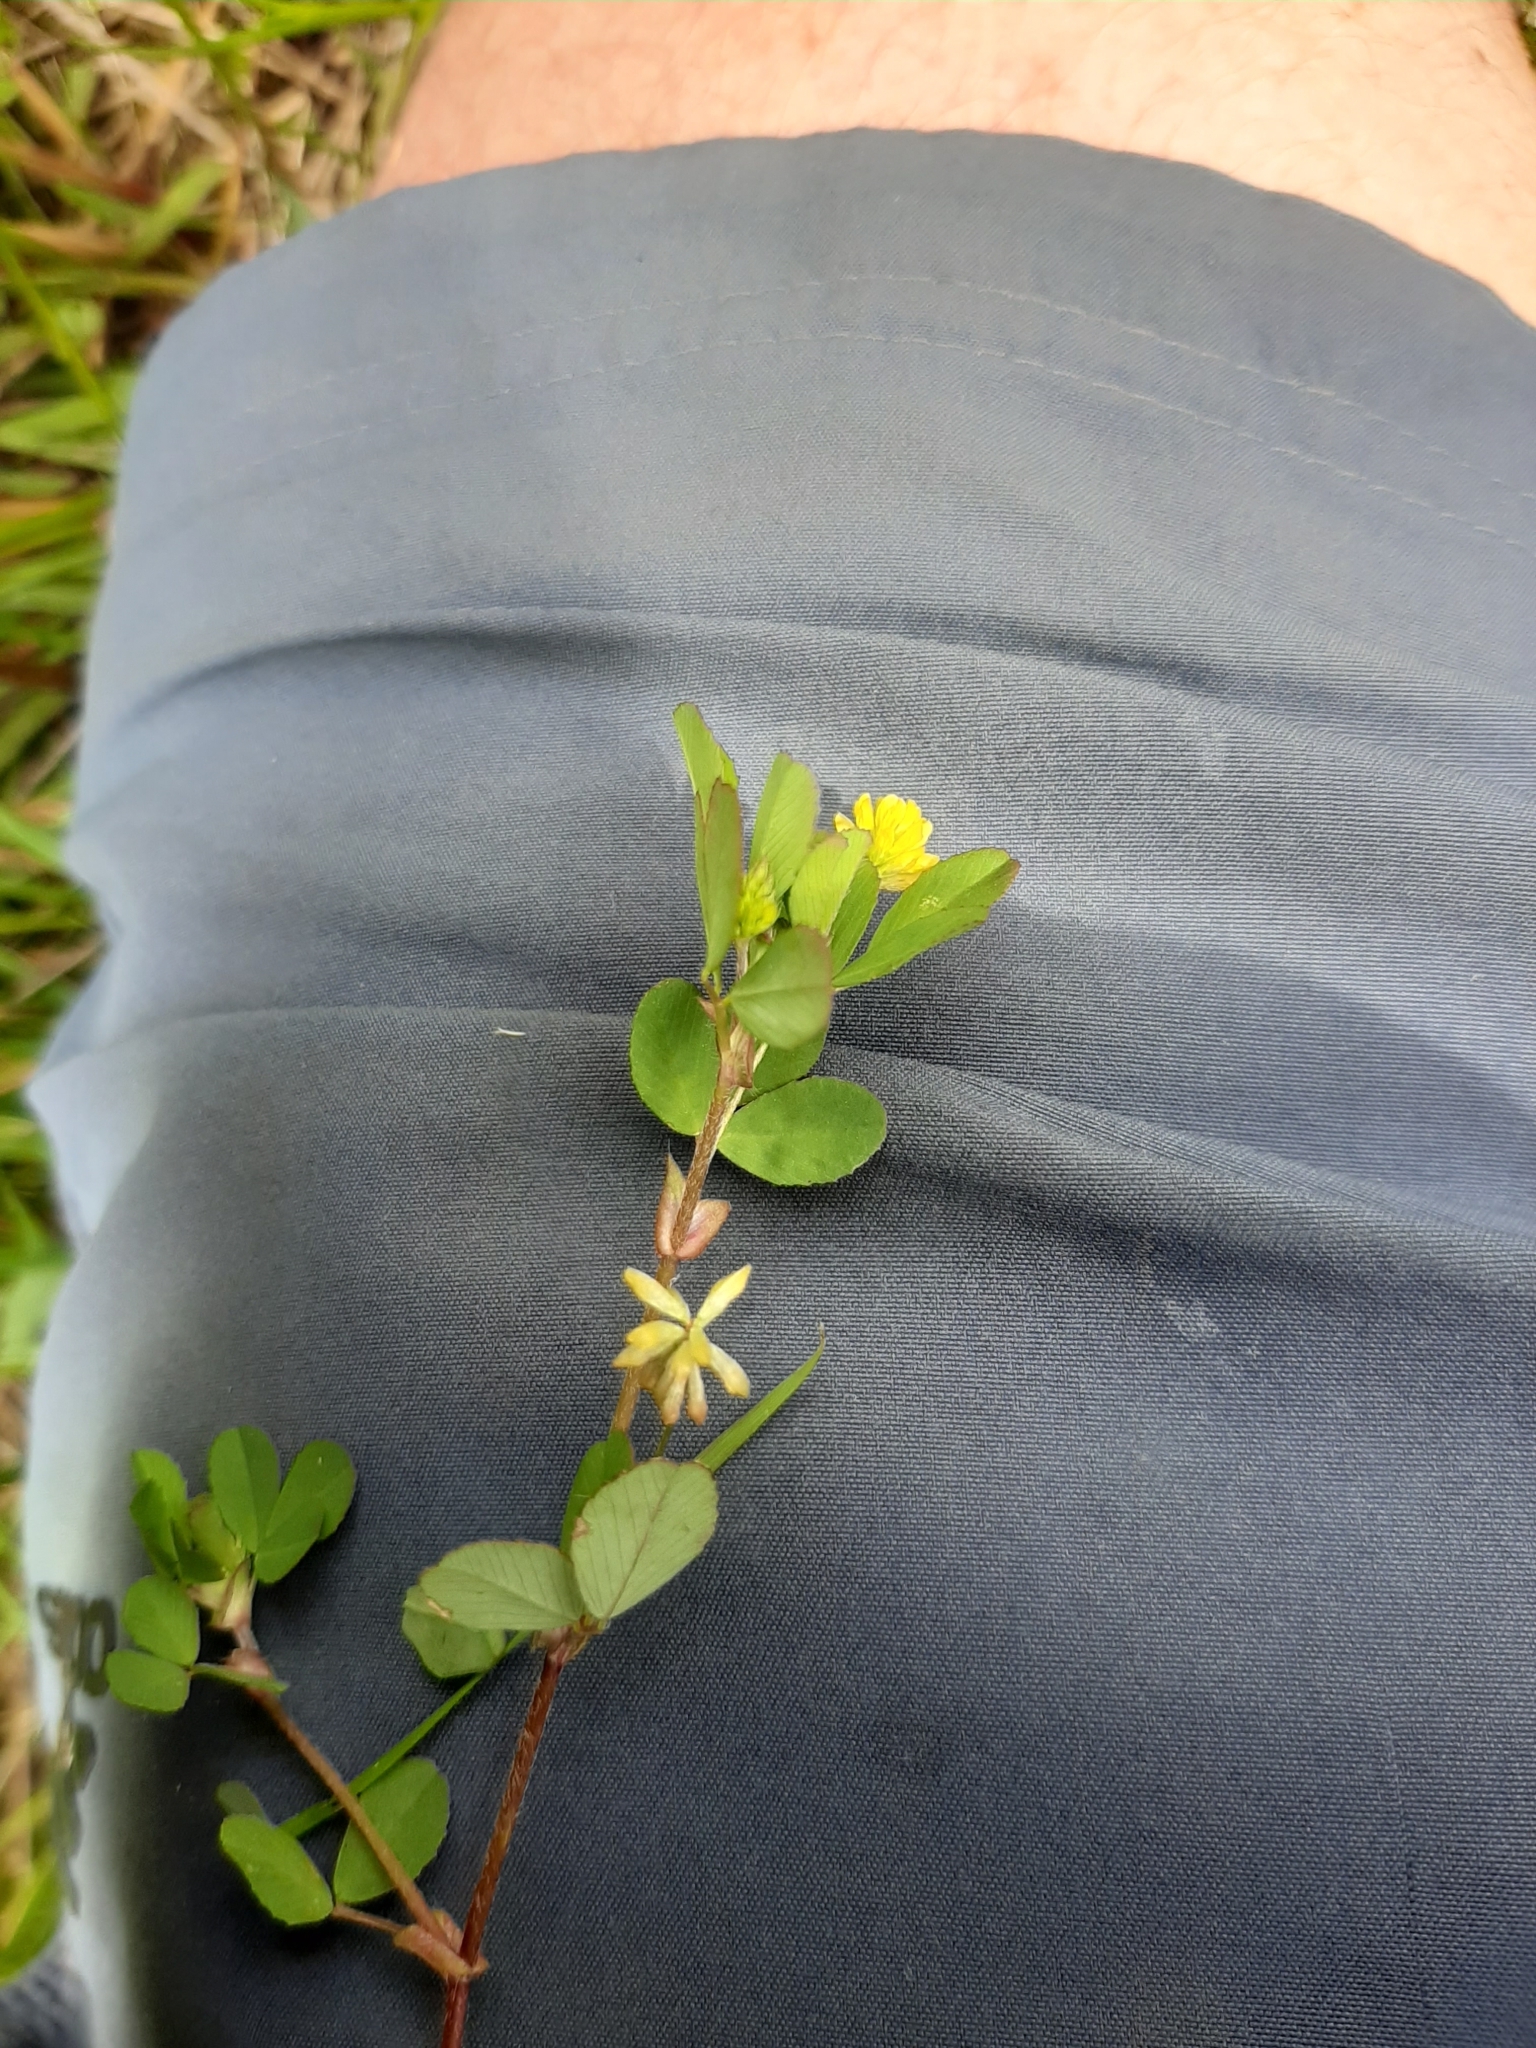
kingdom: Plantae
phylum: Tracheophyta
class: Magnoliopsida
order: Fabales
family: Fabaceae
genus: Trifolium
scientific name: Trifolium dubium
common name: Suckling clover
